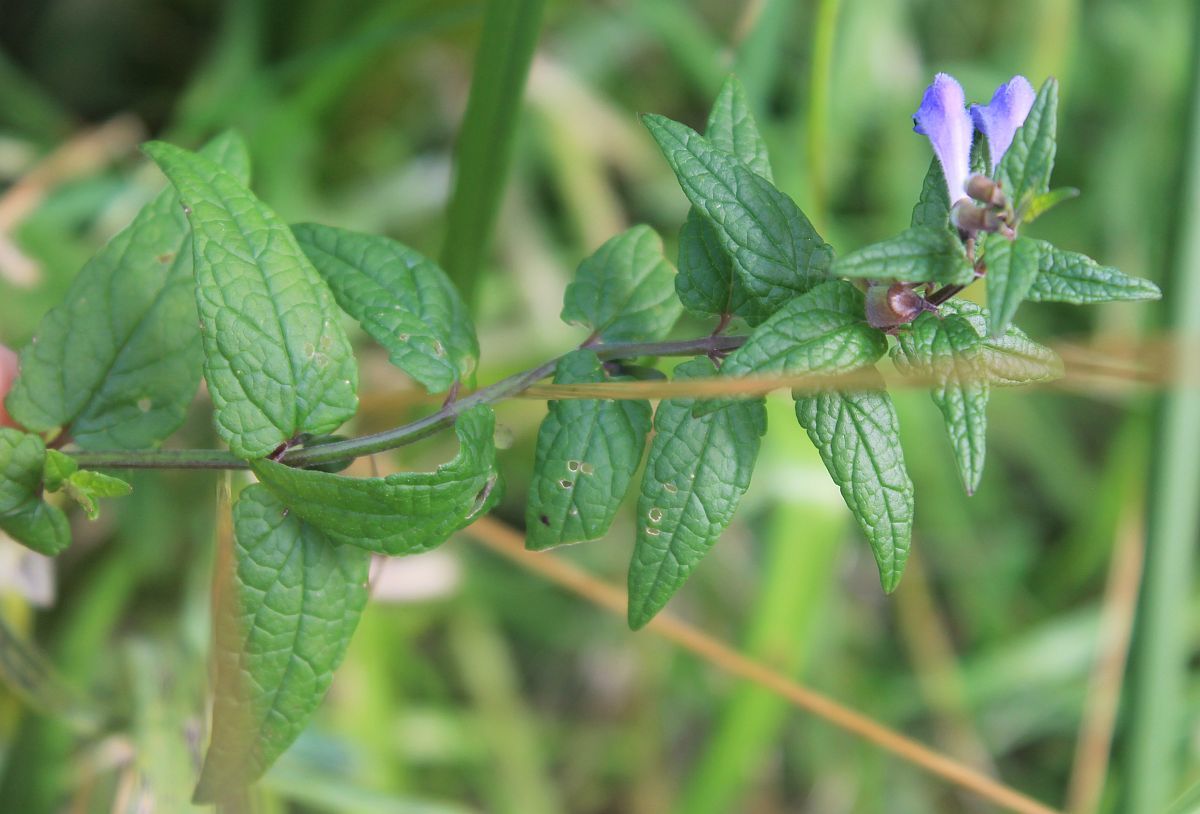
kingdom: Plantae
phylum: Tracheophyta
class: Magnoliopsida
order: Lamiales
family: Lamiaceae
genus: Scutellaria
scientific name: Scutellaria galericulata
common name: Skullcap
